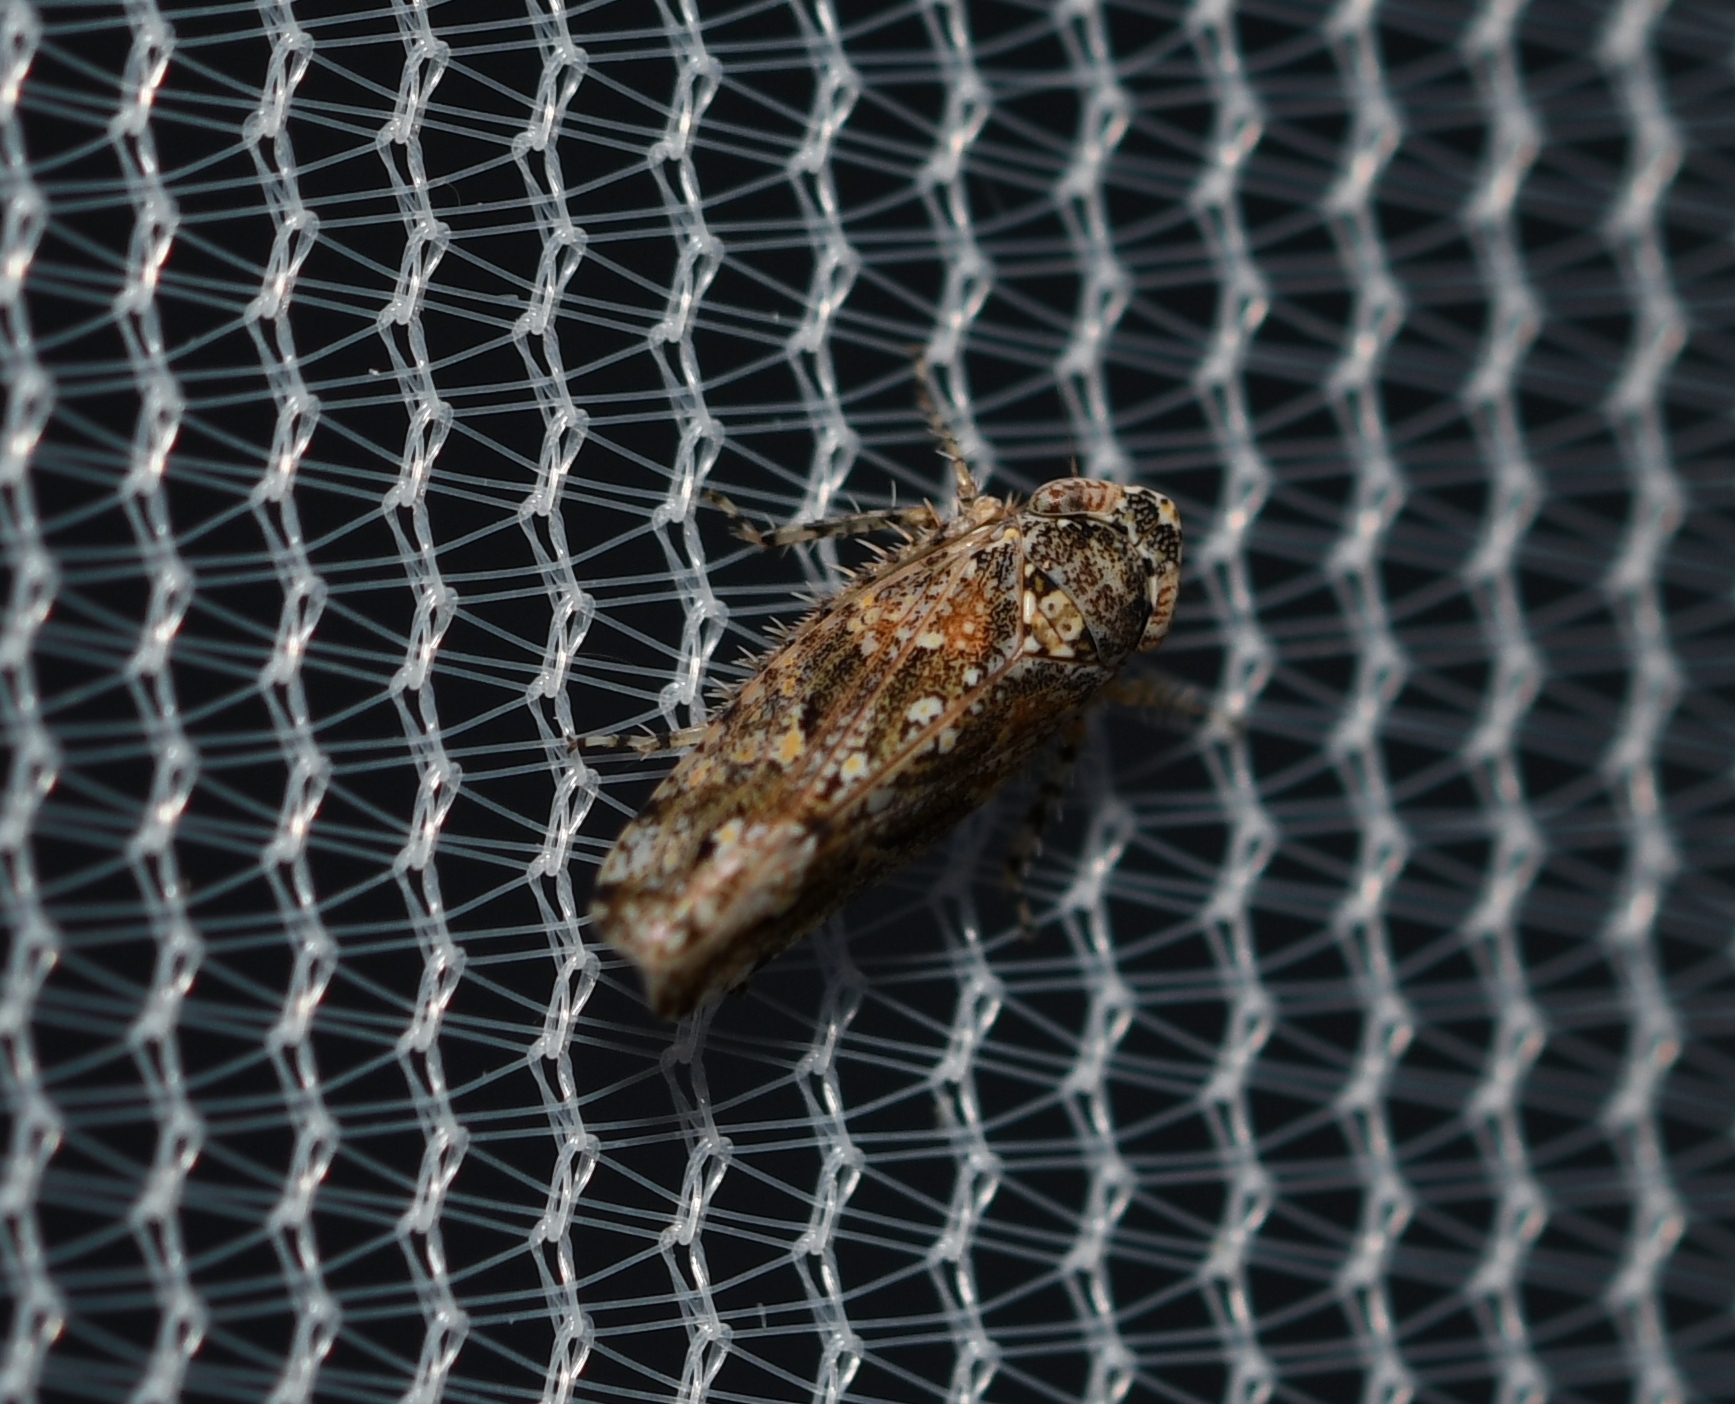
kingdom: Animalia
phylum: Arthropoda
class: Insecta
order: Hemiptera
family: Cicadellidae
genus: Dixianus
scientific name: Dixianus utahnus
